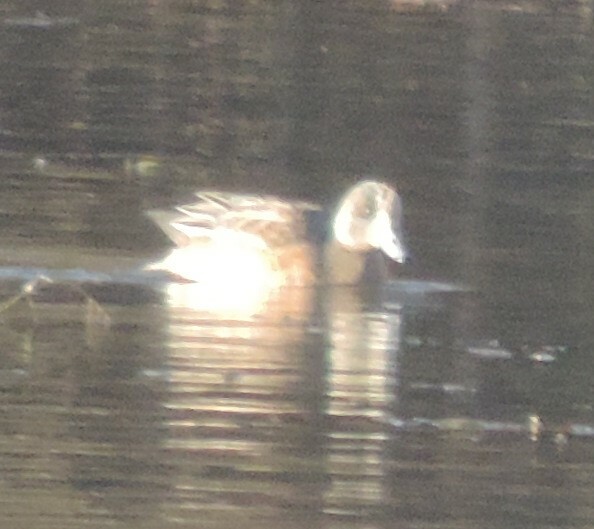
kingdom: Animalia
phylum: Chordata
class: Aves
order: Anseriformes
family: Anatidae
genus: Mareca
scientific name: Mareca americana
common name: American wigeon
